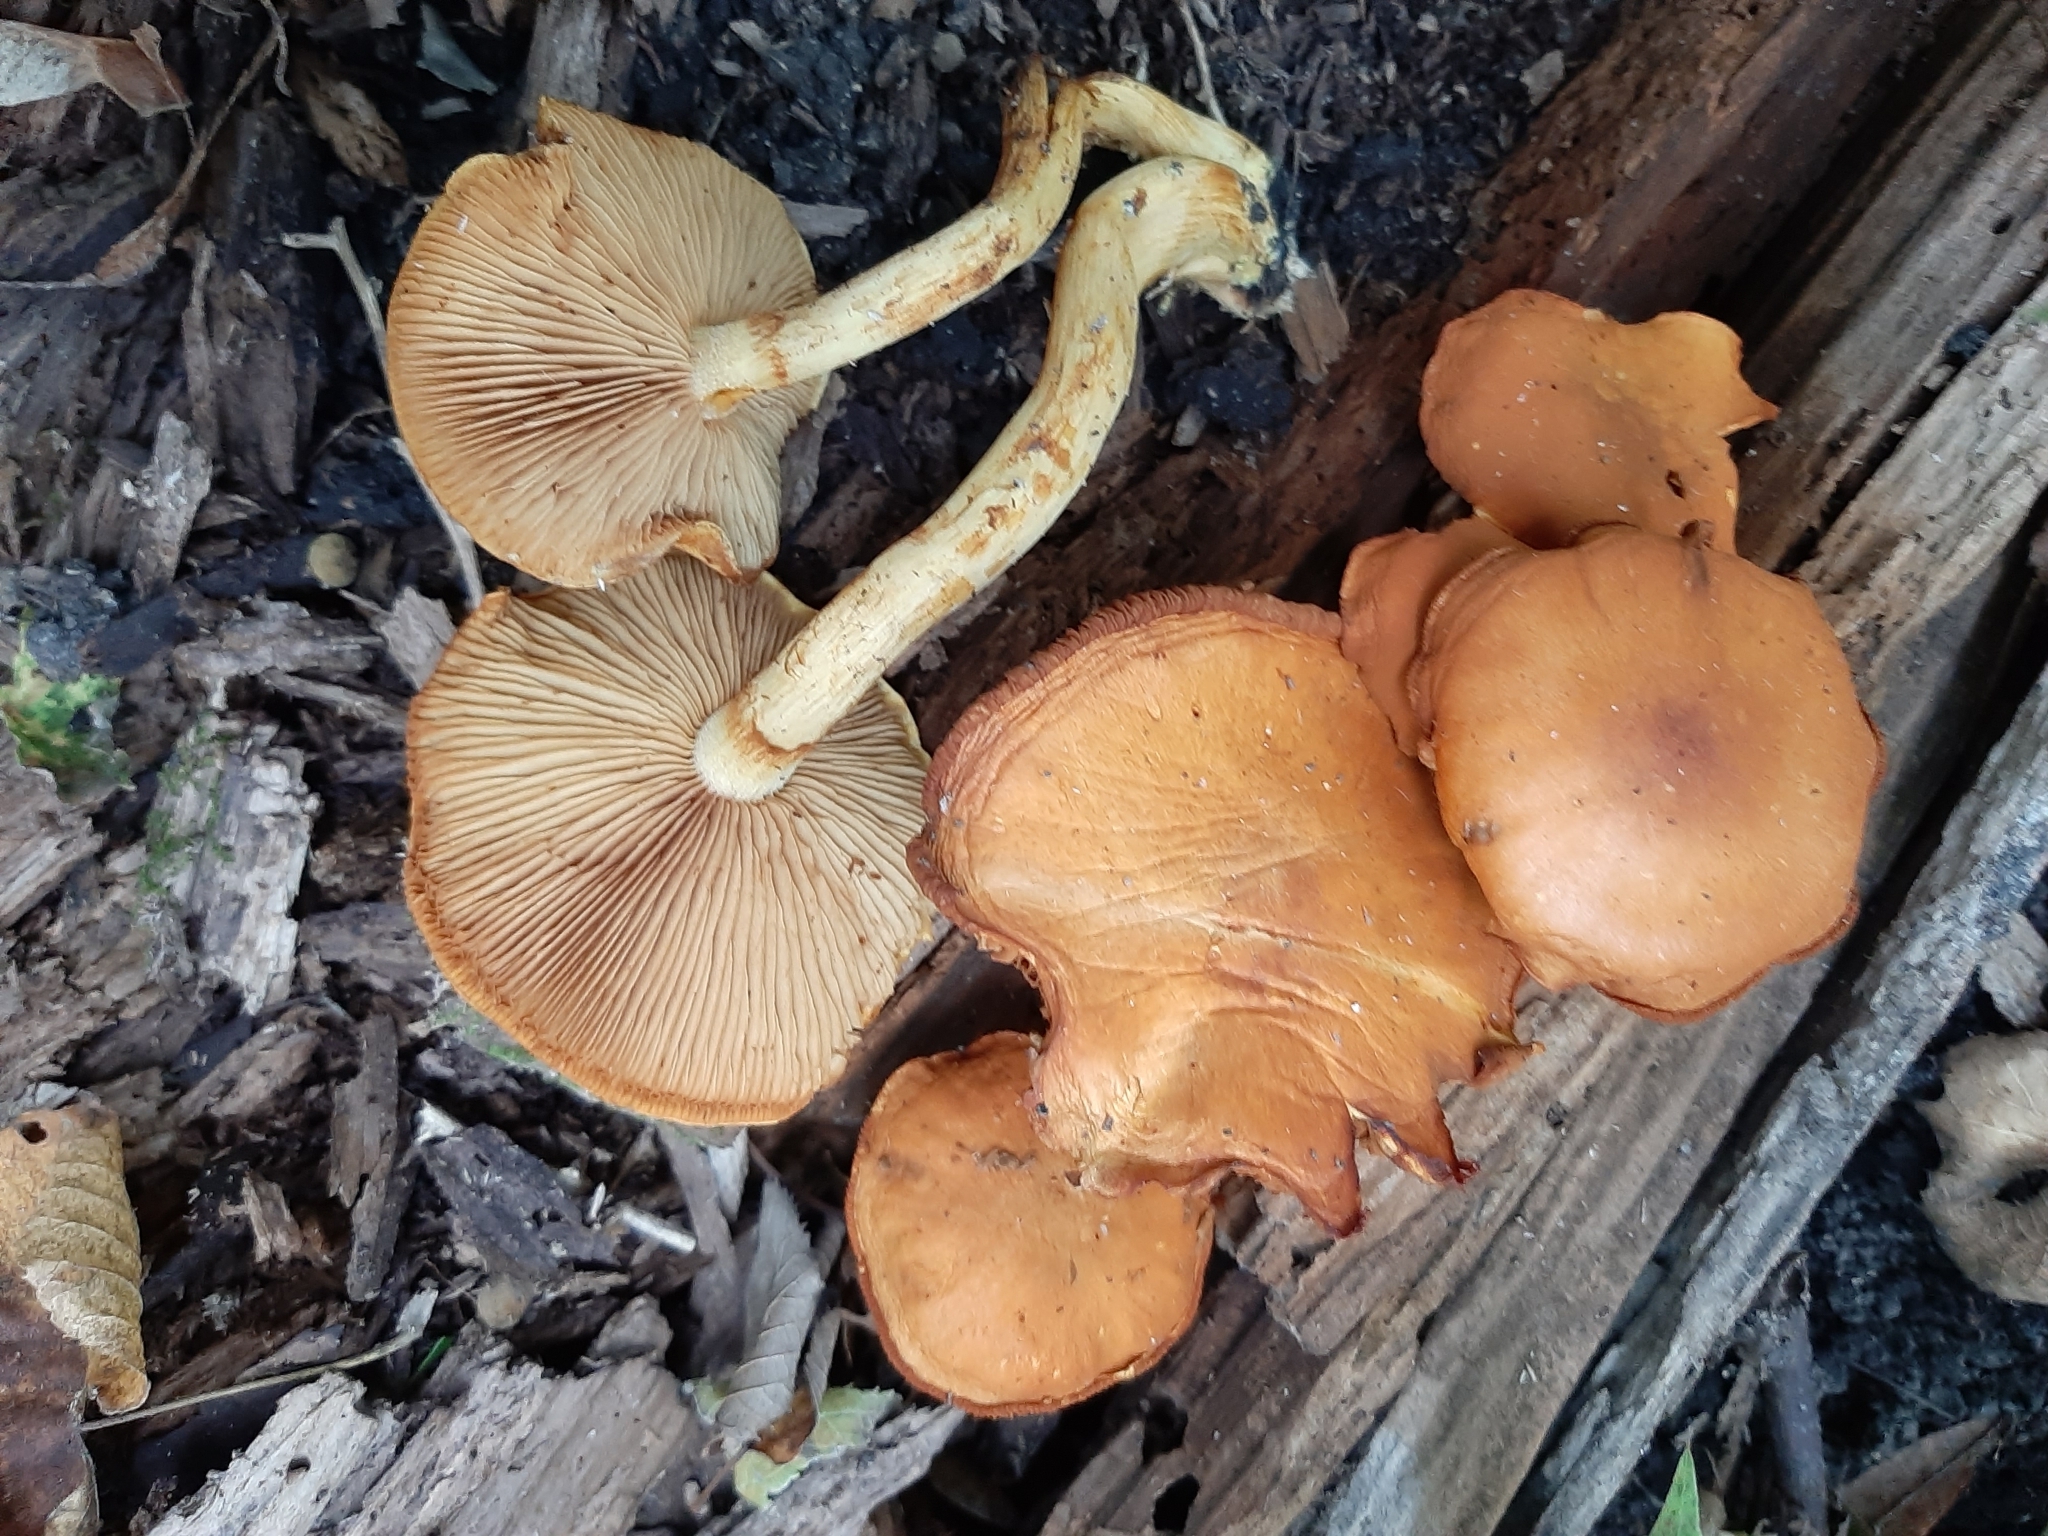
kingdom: Fungi
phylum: Basidiomycota
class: Agaricomycetes
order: Agaricales
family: Hymenogastraceae
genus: Gymnopilus
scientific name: Gymnopilus luteus
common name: Yellow gymnopilus
